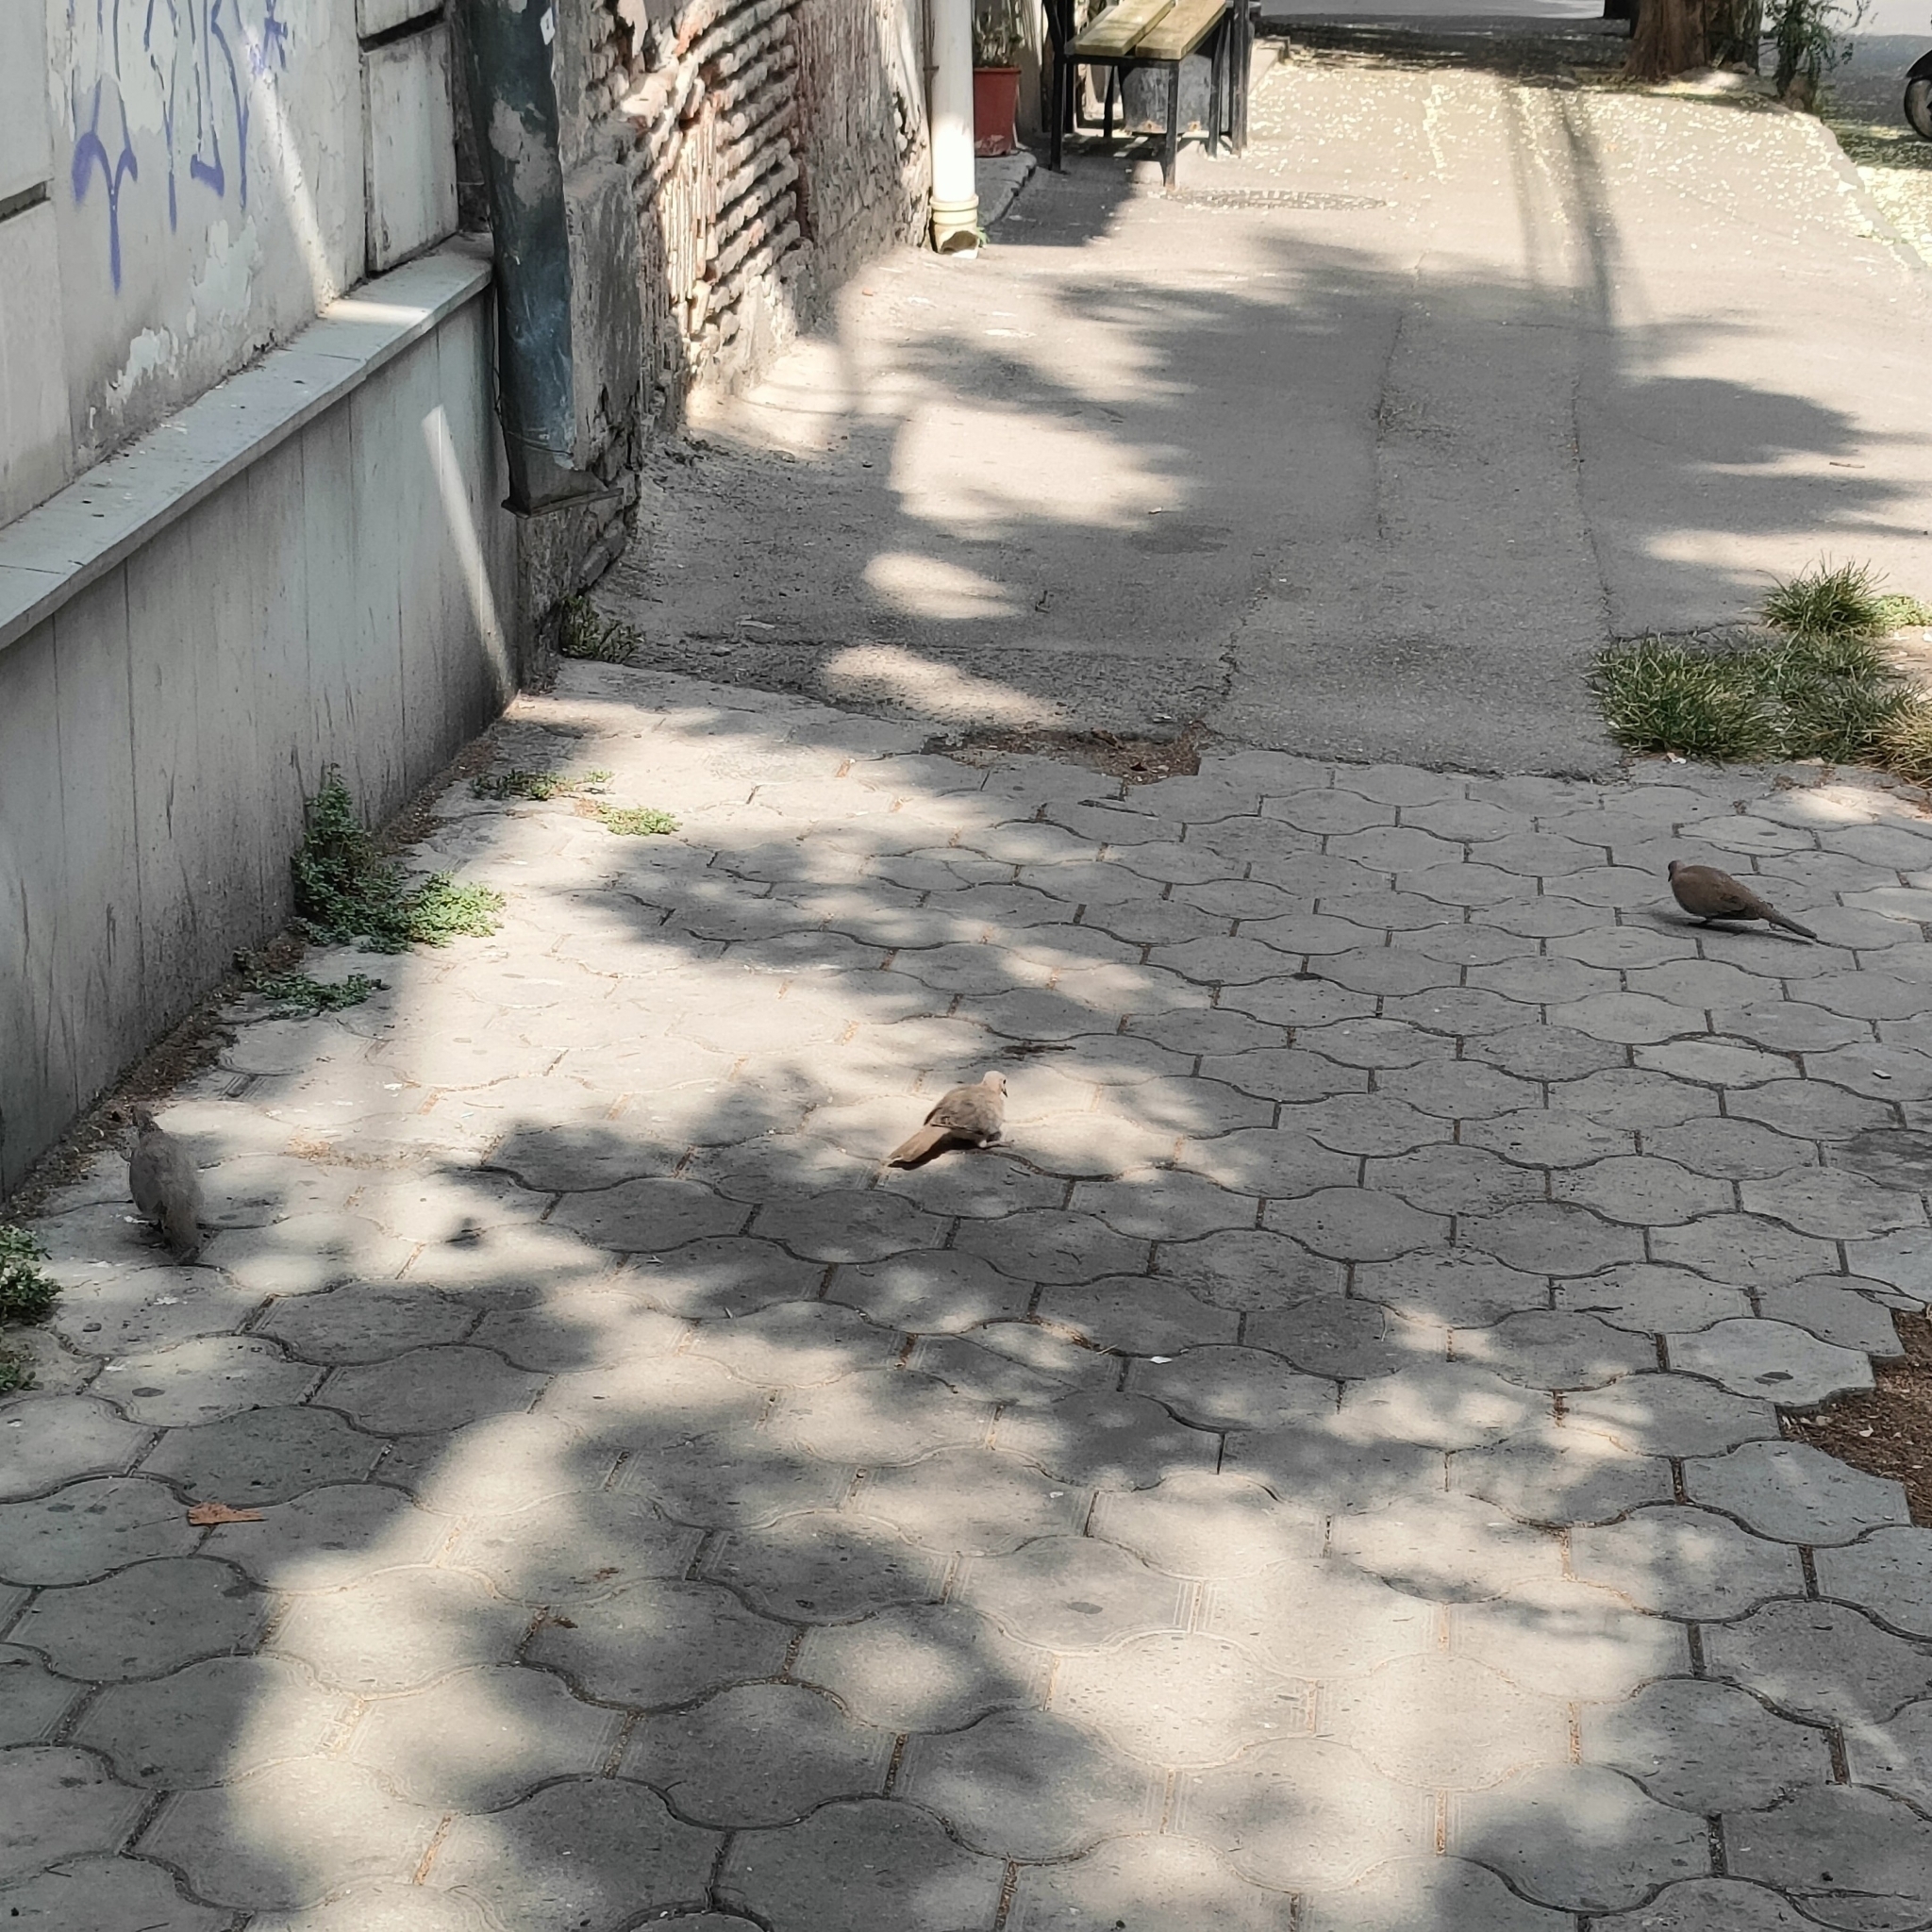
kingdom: Animalia
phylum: Chordata
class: Aves
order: Columbiformes
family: Columbidae
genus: Spilopelia
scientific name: Spilopelia senegalensis
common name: Laughing dove
